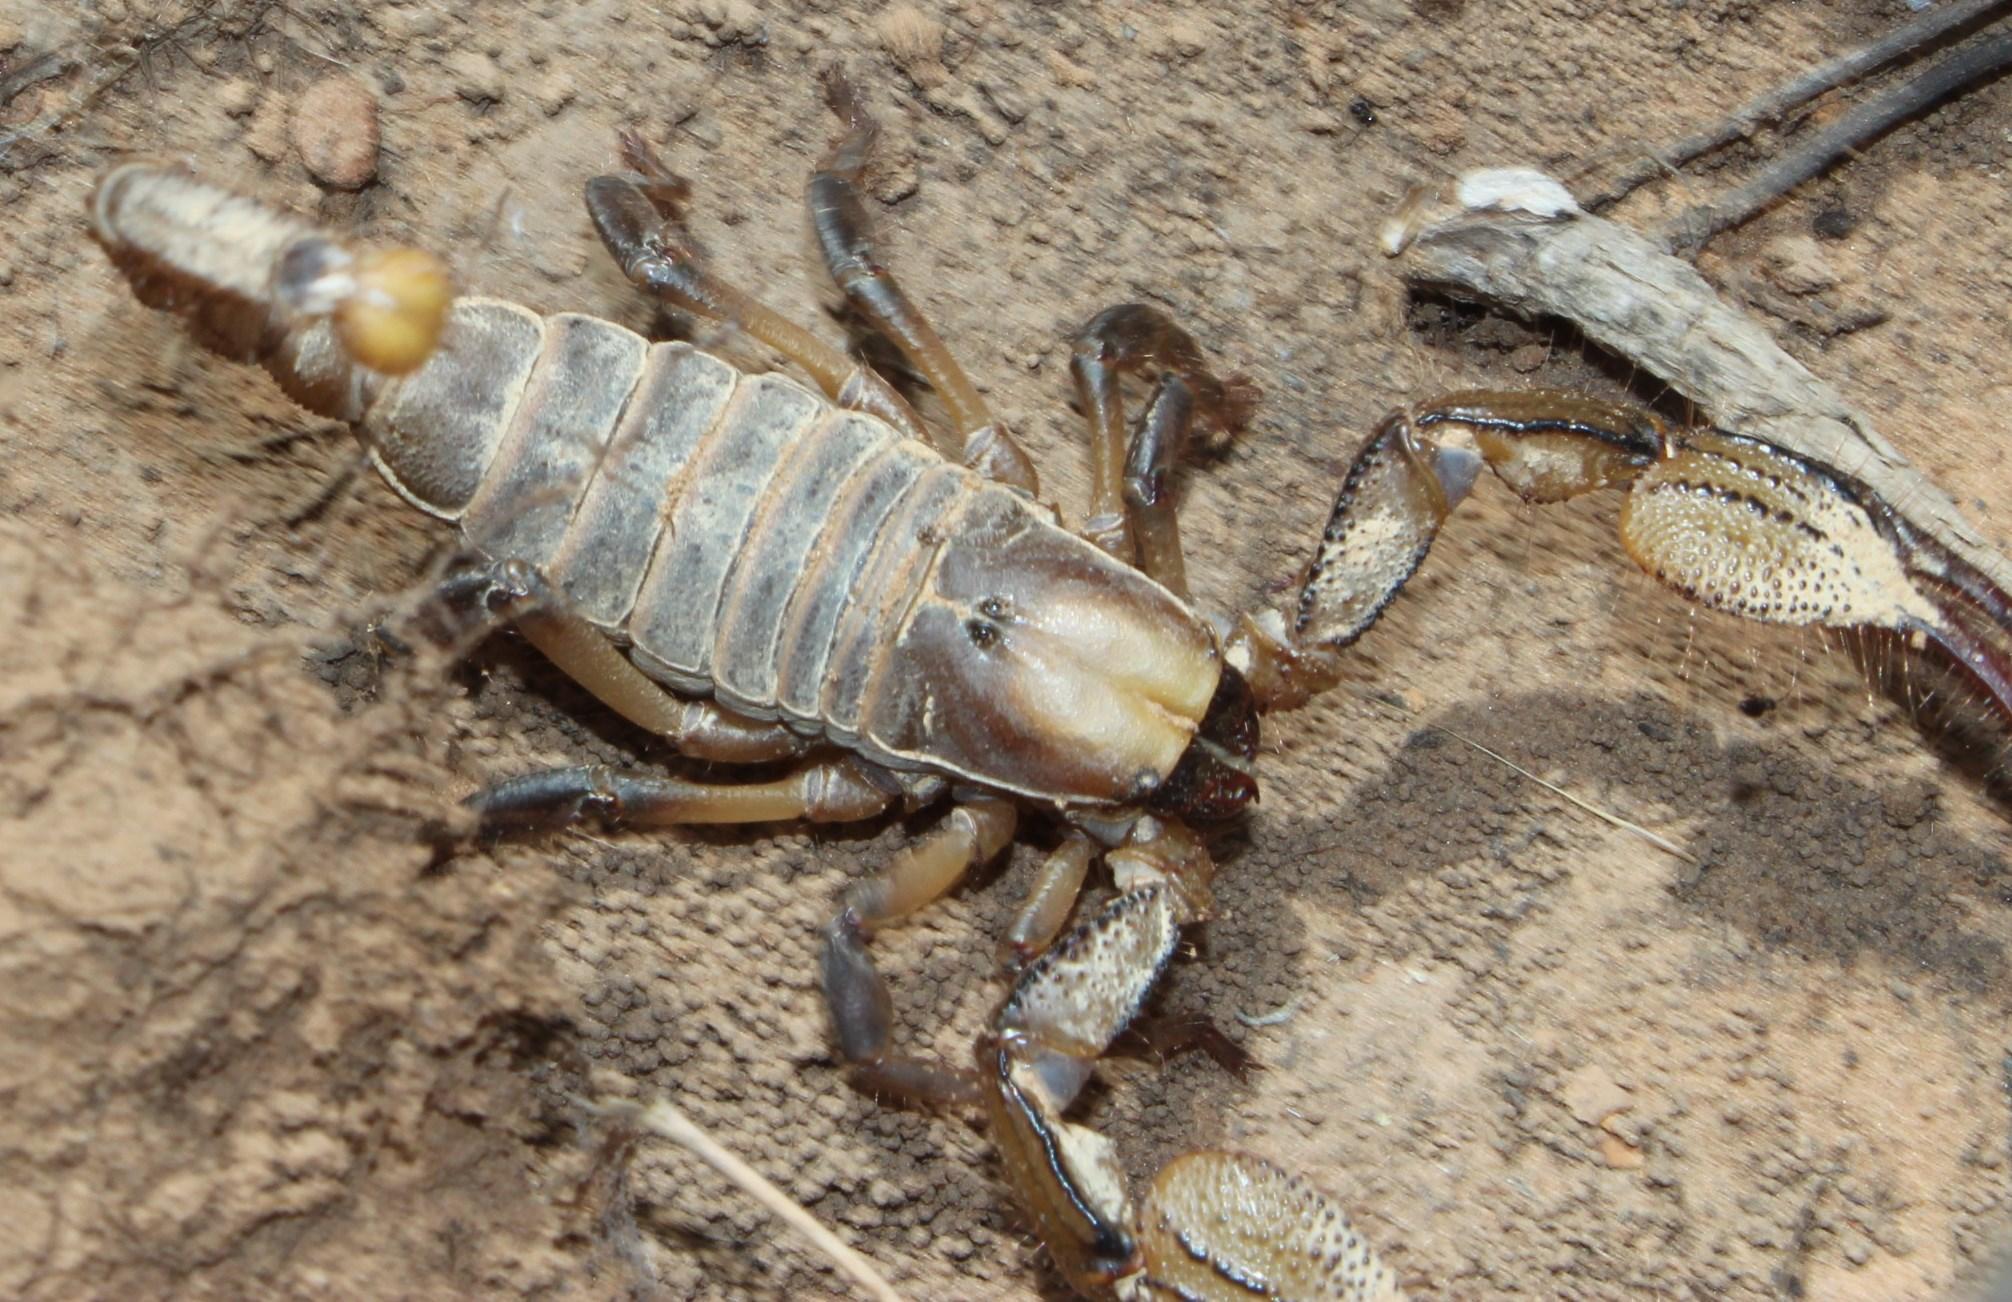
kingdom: Animalia
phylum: Arthropoda
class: Arachnida
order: Scorpiones
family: Scorpionidae
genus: Opistophthalmus
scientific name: Opistophthalmus macer
